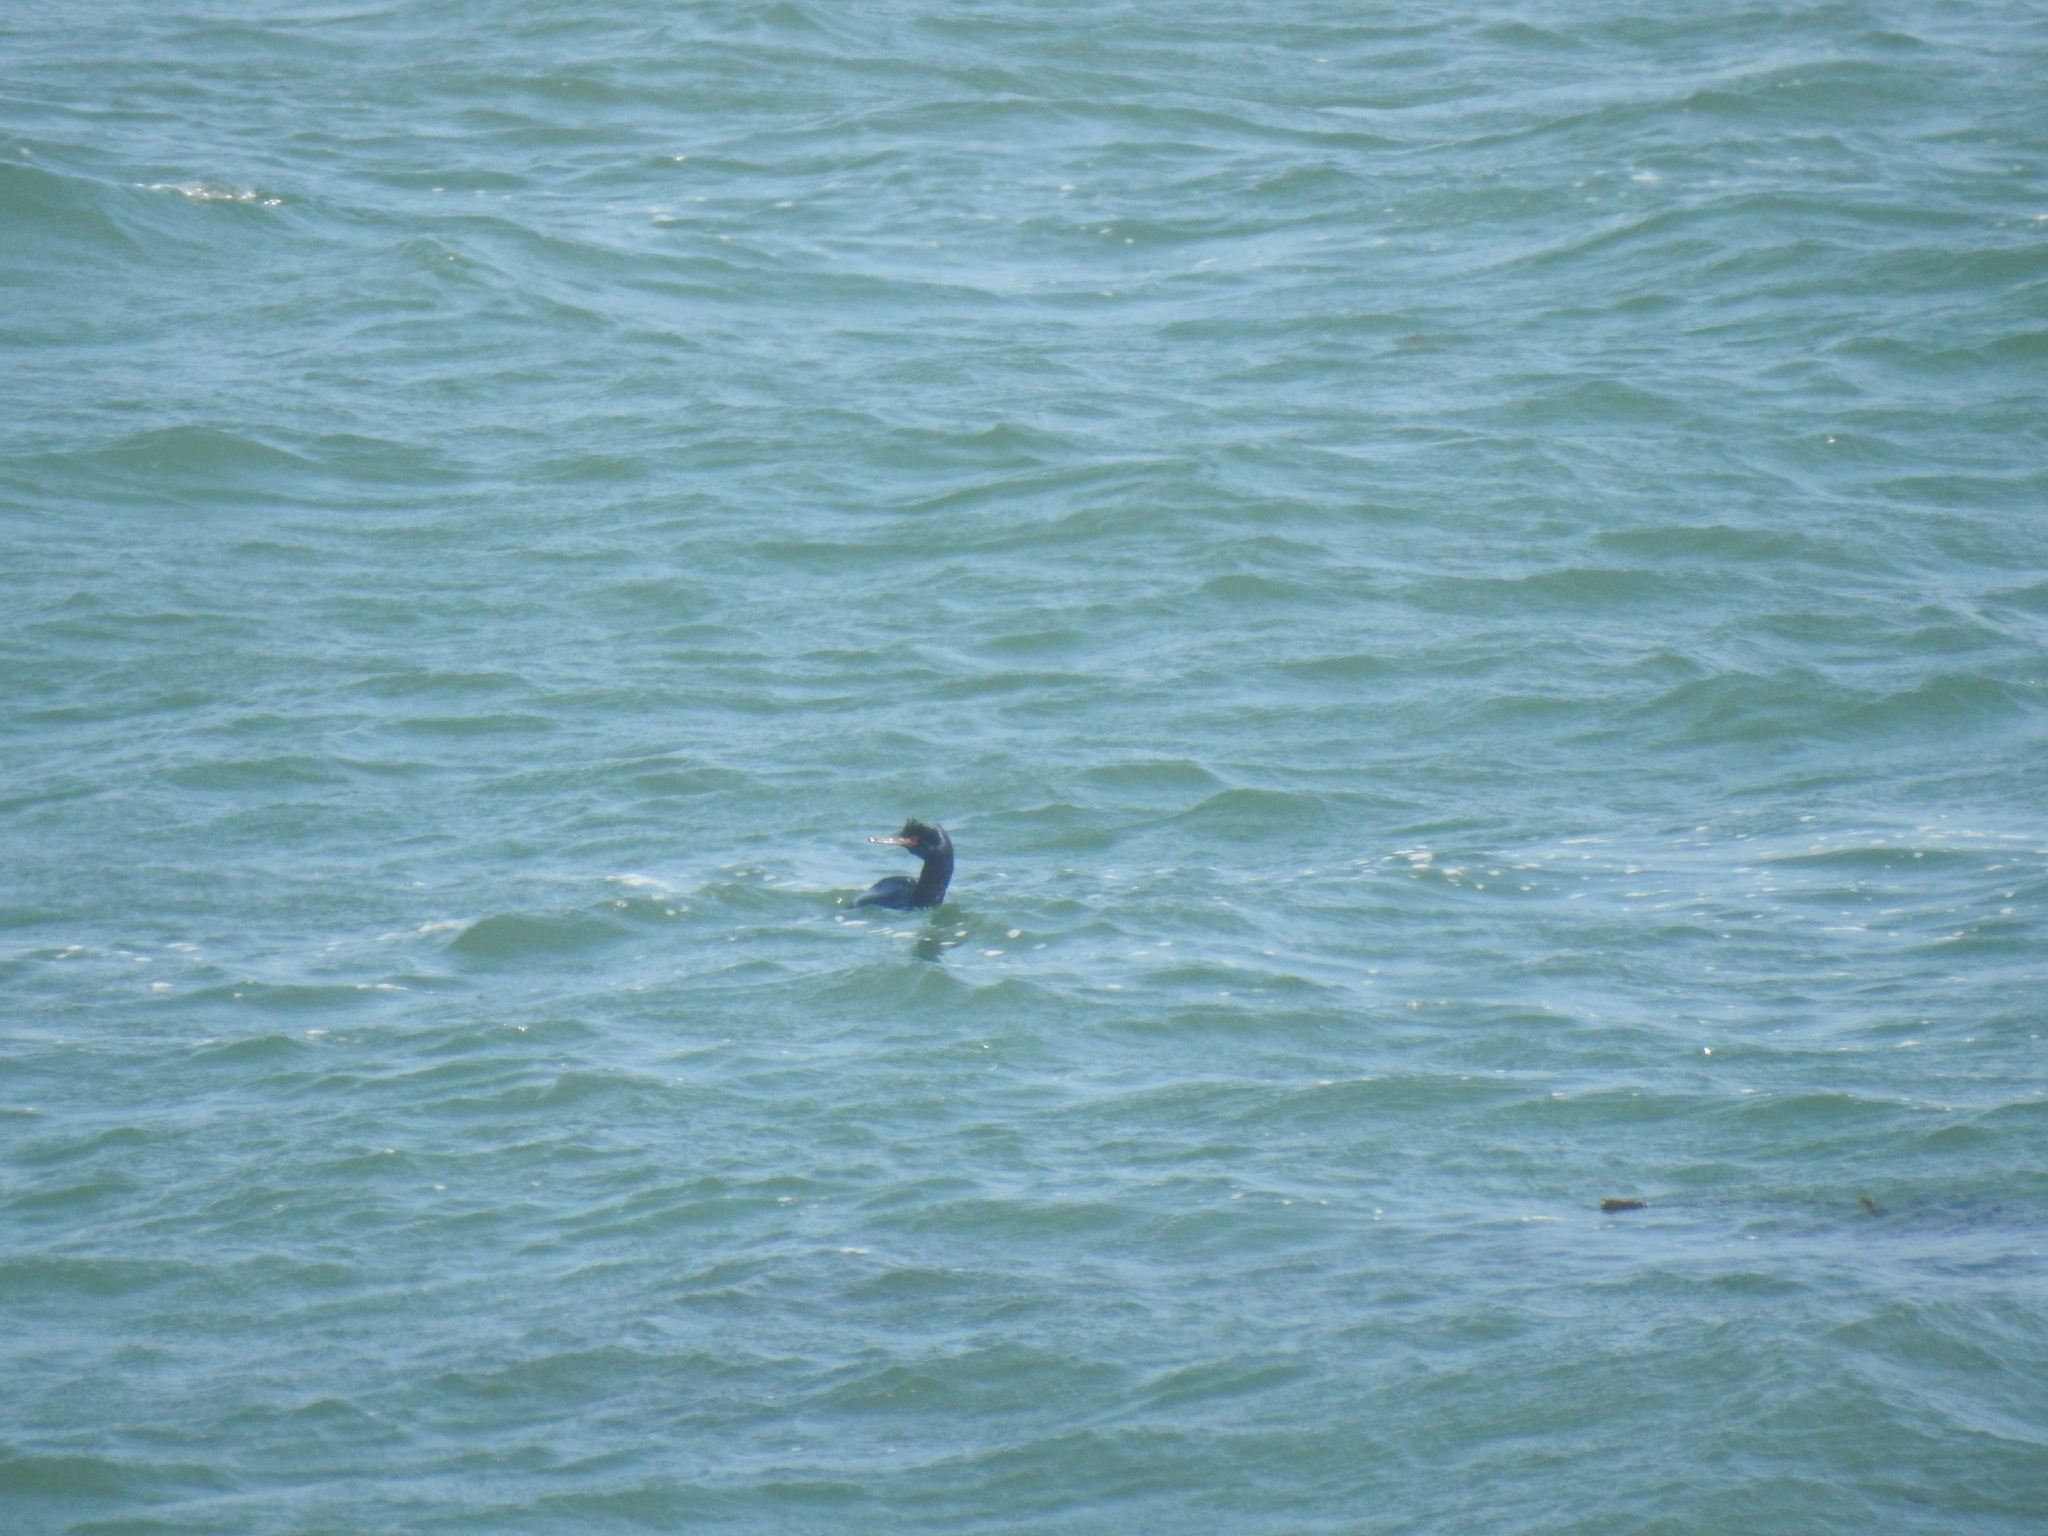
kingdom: Animalia
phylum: Chordata
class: Aves
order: Suliformes
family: Phalacrocoracidae
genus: Phalacrocorax
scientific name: Phalacrocorax pelagicus
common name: Pelagic cormorant
